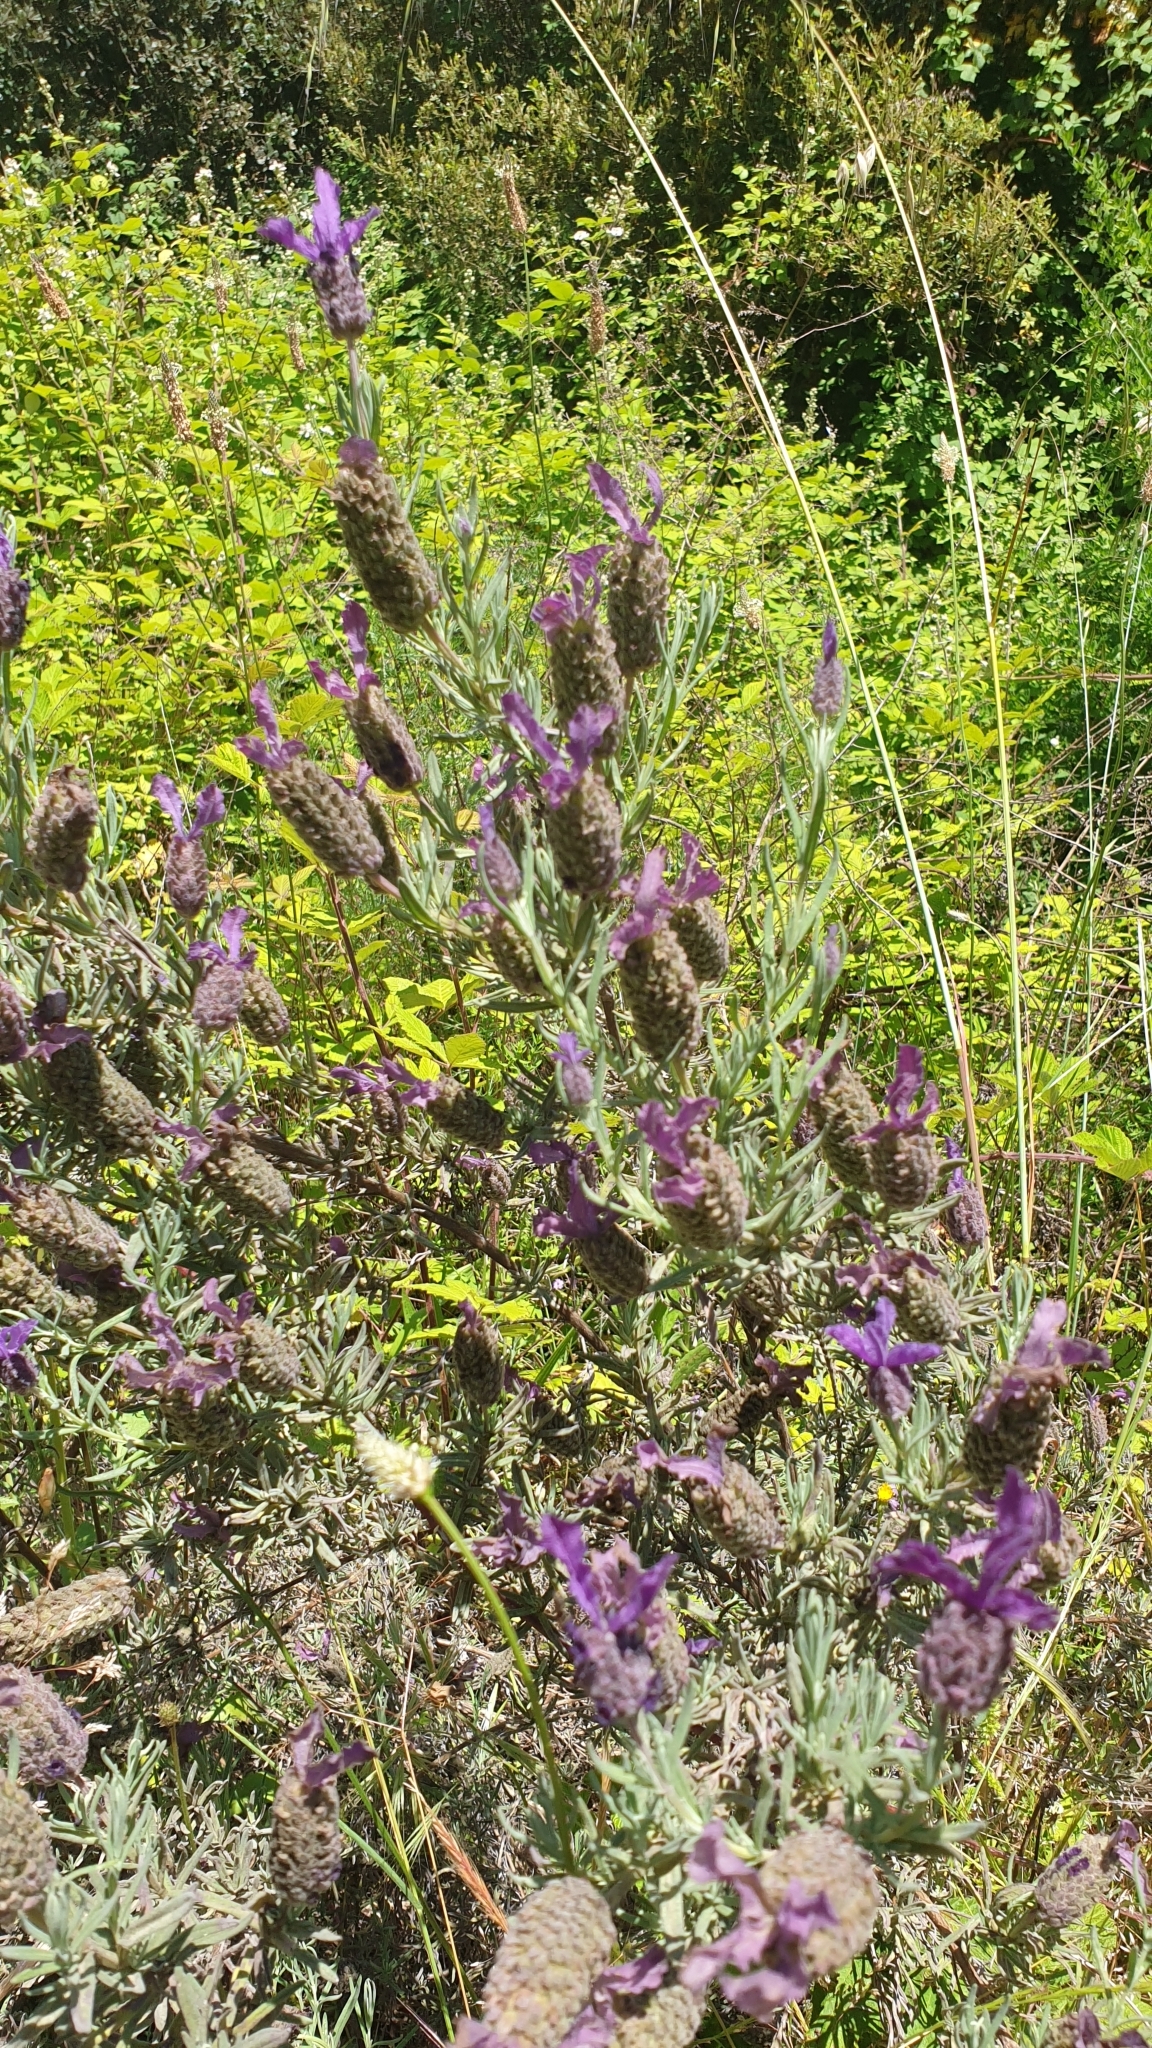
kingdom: Plantae
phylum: Tracheophyta
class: Magnoliopsida
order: Lamiales
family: Lamiaceae
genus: Lavandula
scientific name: Lavandula stoechas
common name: French lavender
